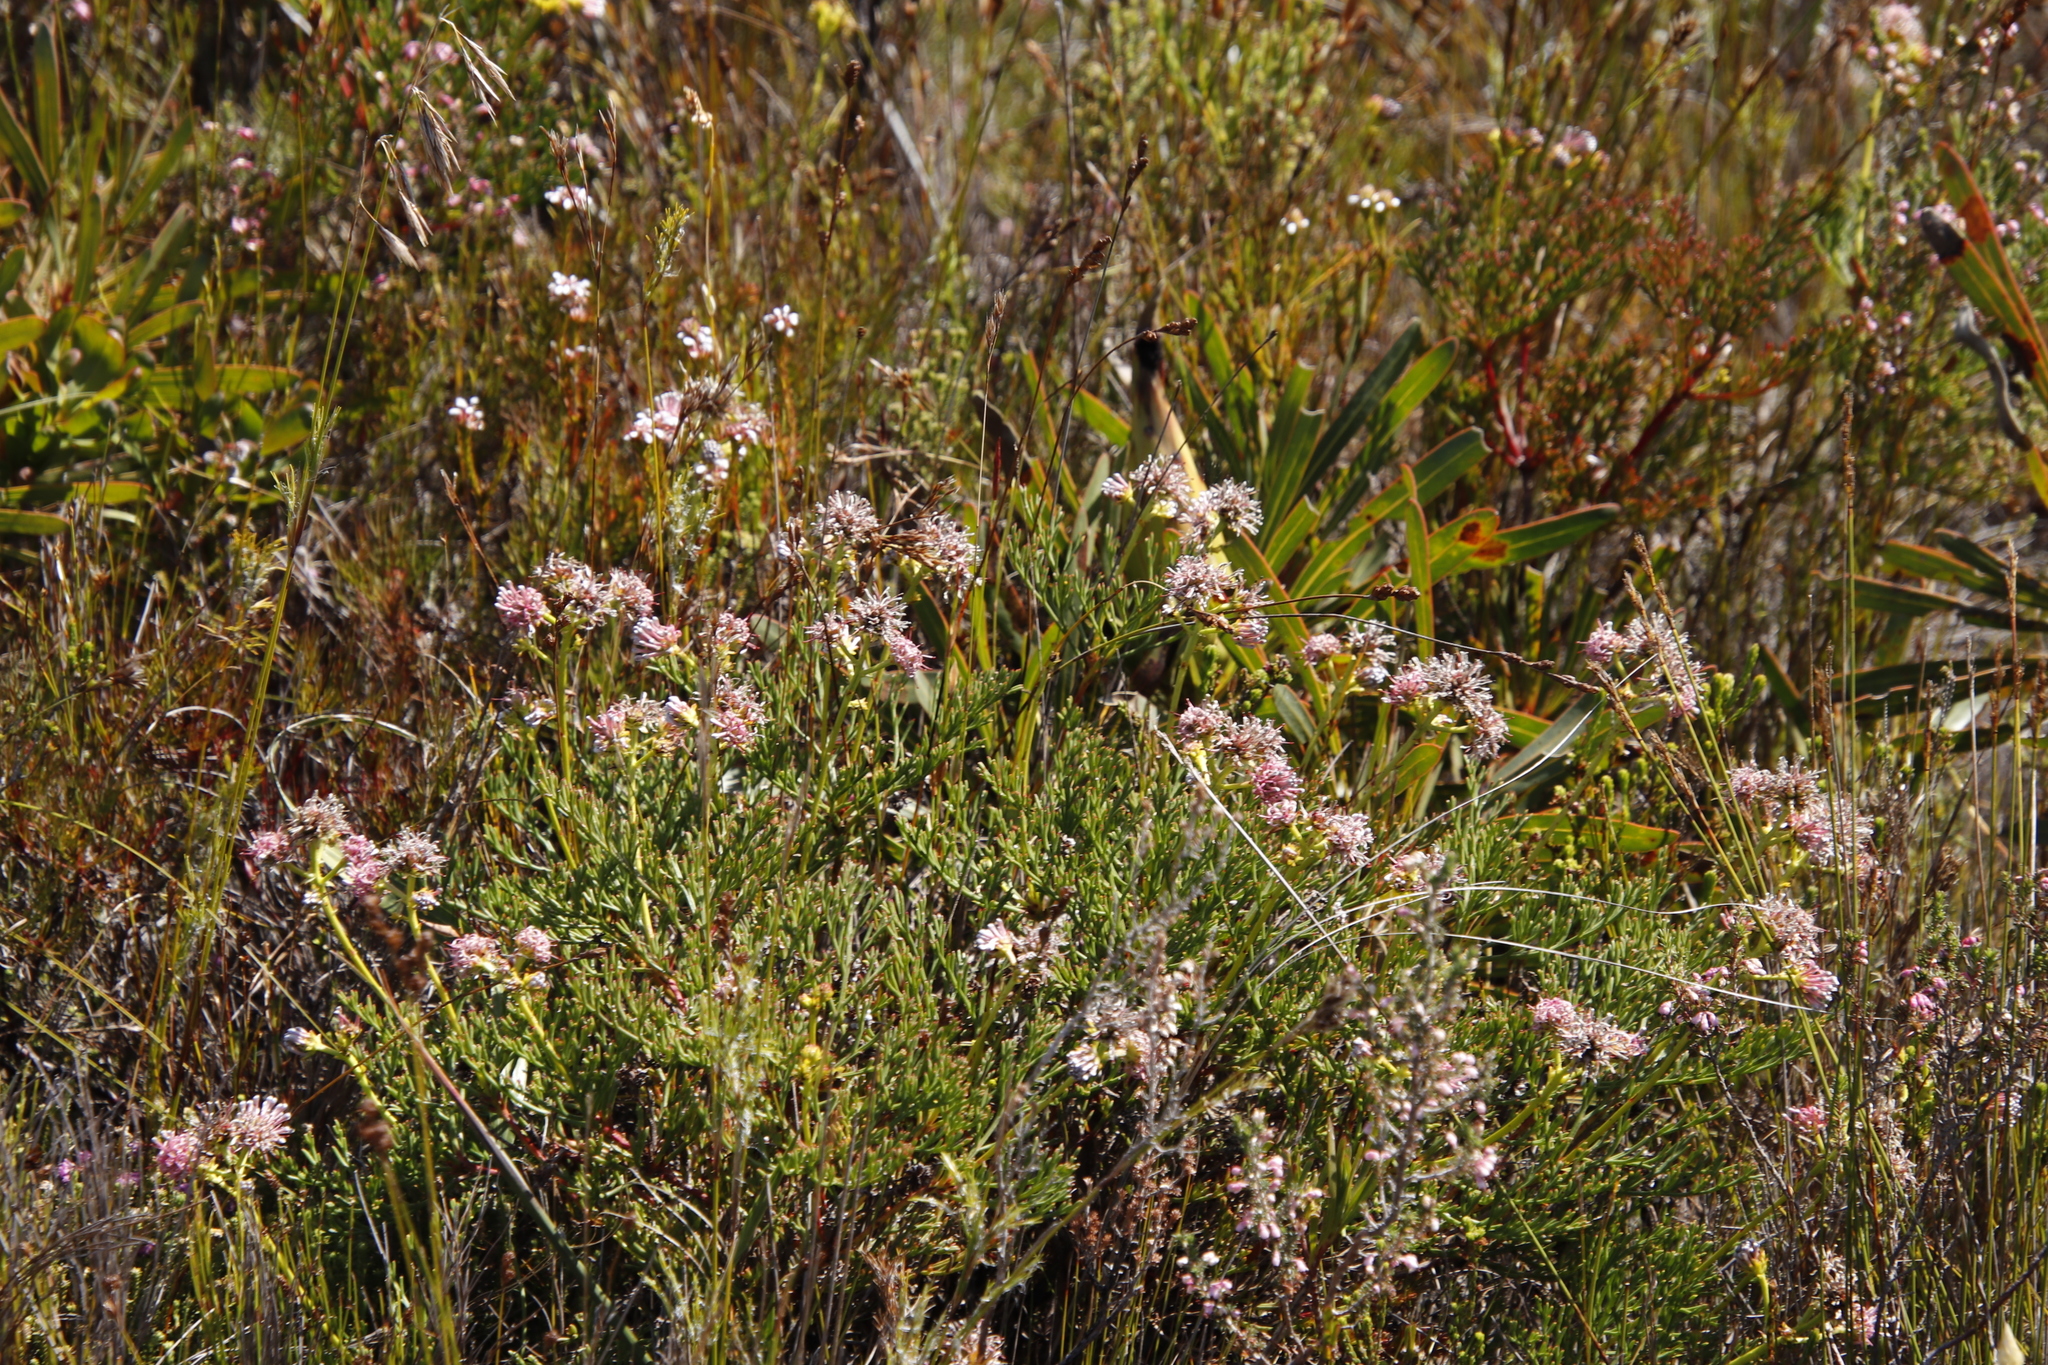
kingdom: Plantae
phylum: Tracheophyta
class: Magnoliopsida
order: Proteales
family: Proteaceae
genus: Serruria
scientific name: Serruria elongata
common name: Long-stalk spiderhead
